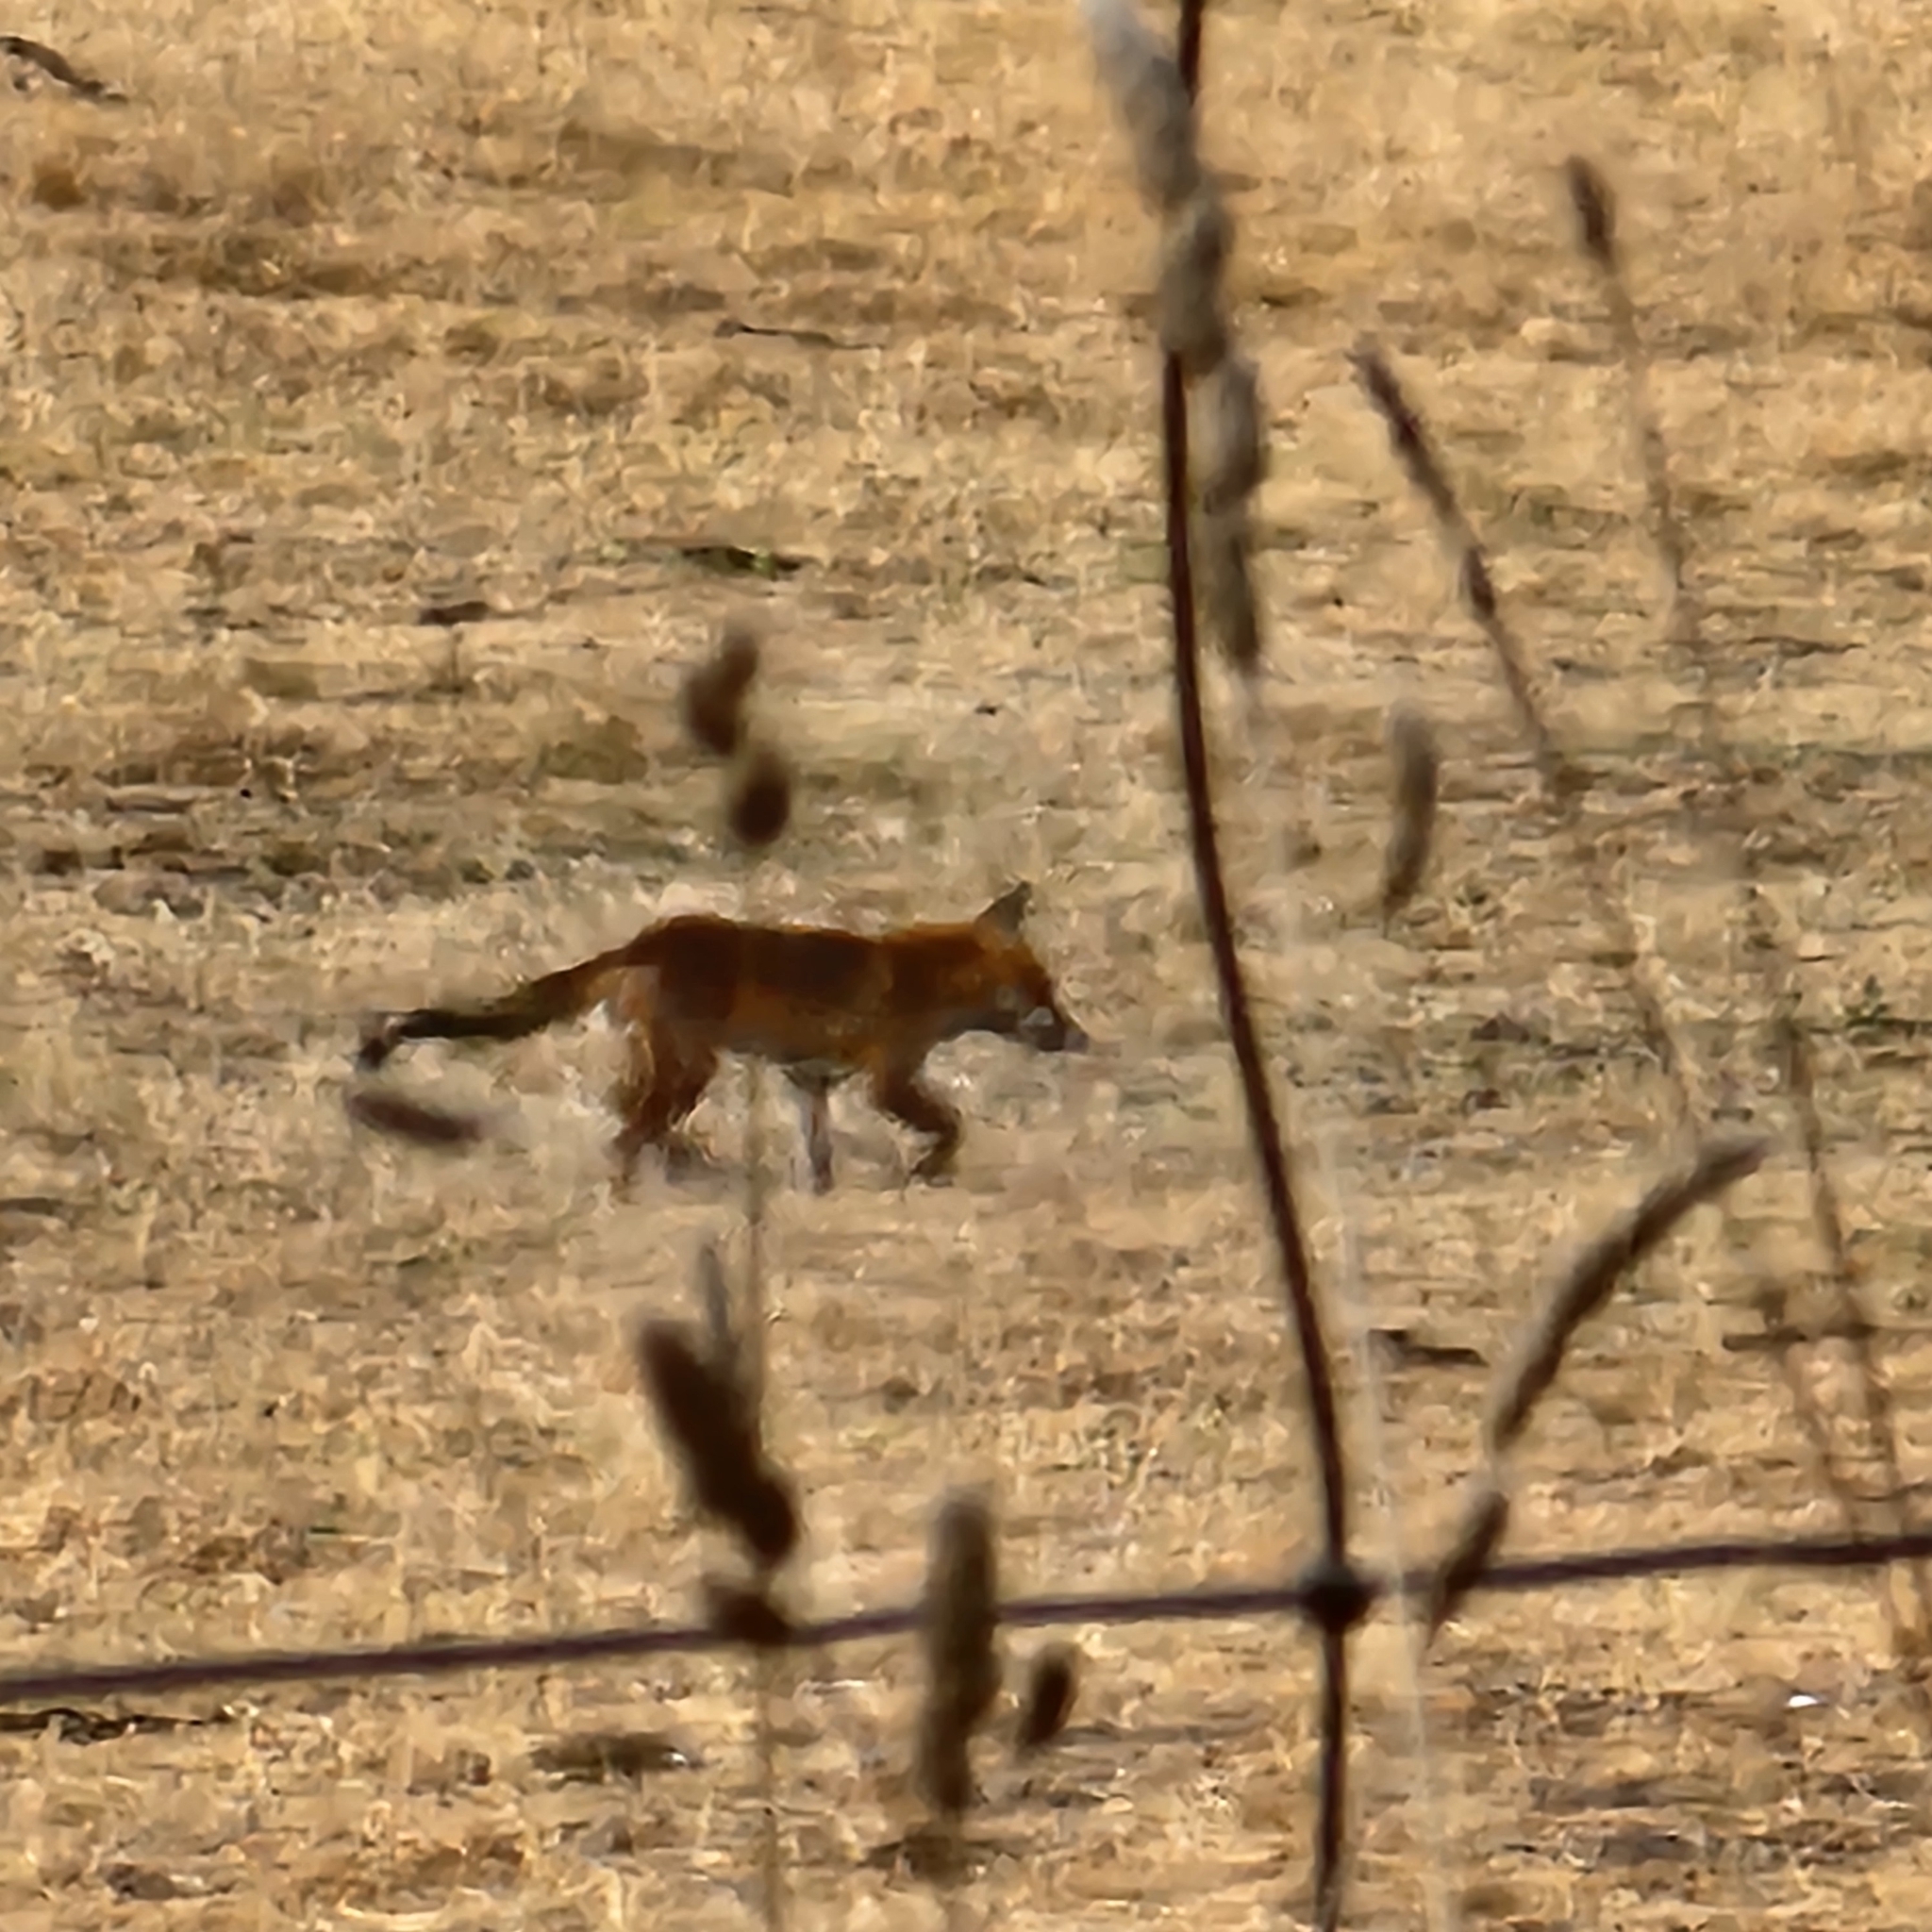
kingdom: Animalia
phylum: Chordata
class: Mammalia
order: Carnivora
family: Canidae
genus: Vulpes
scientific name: Vulpes vulpes
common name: Red fox
